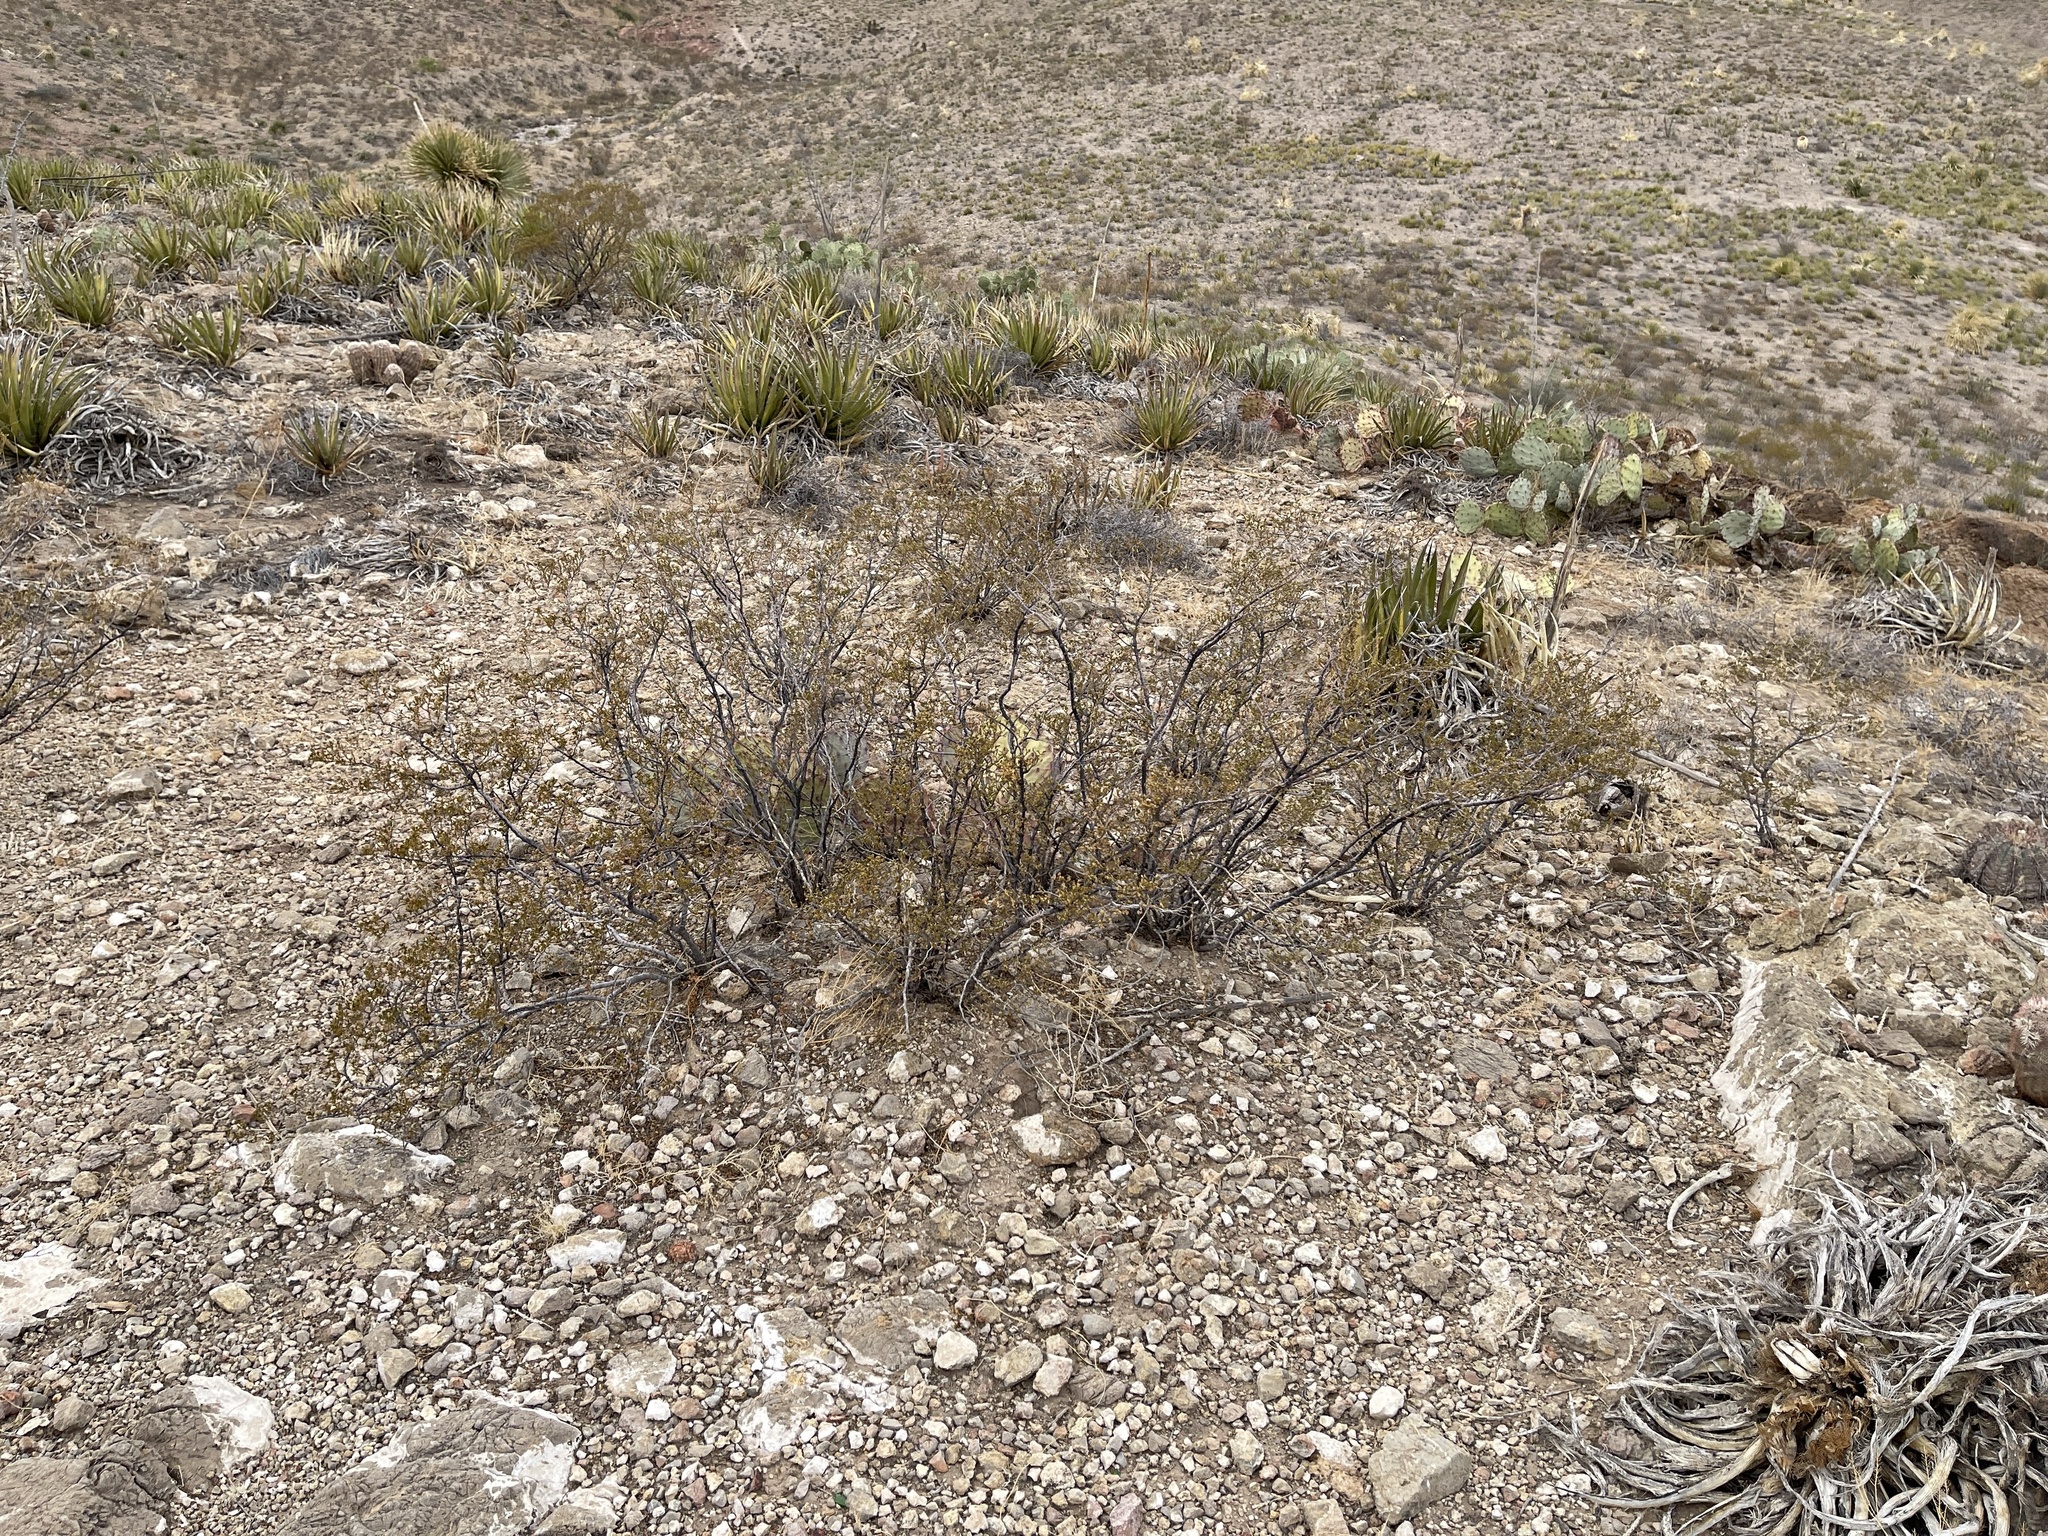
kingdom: Plantae
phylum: Tracheophyta
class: Magnoliopsida
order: Zygophyllales
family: Zygophyllaceae
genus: Larrea
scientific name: Larrea tridentata
